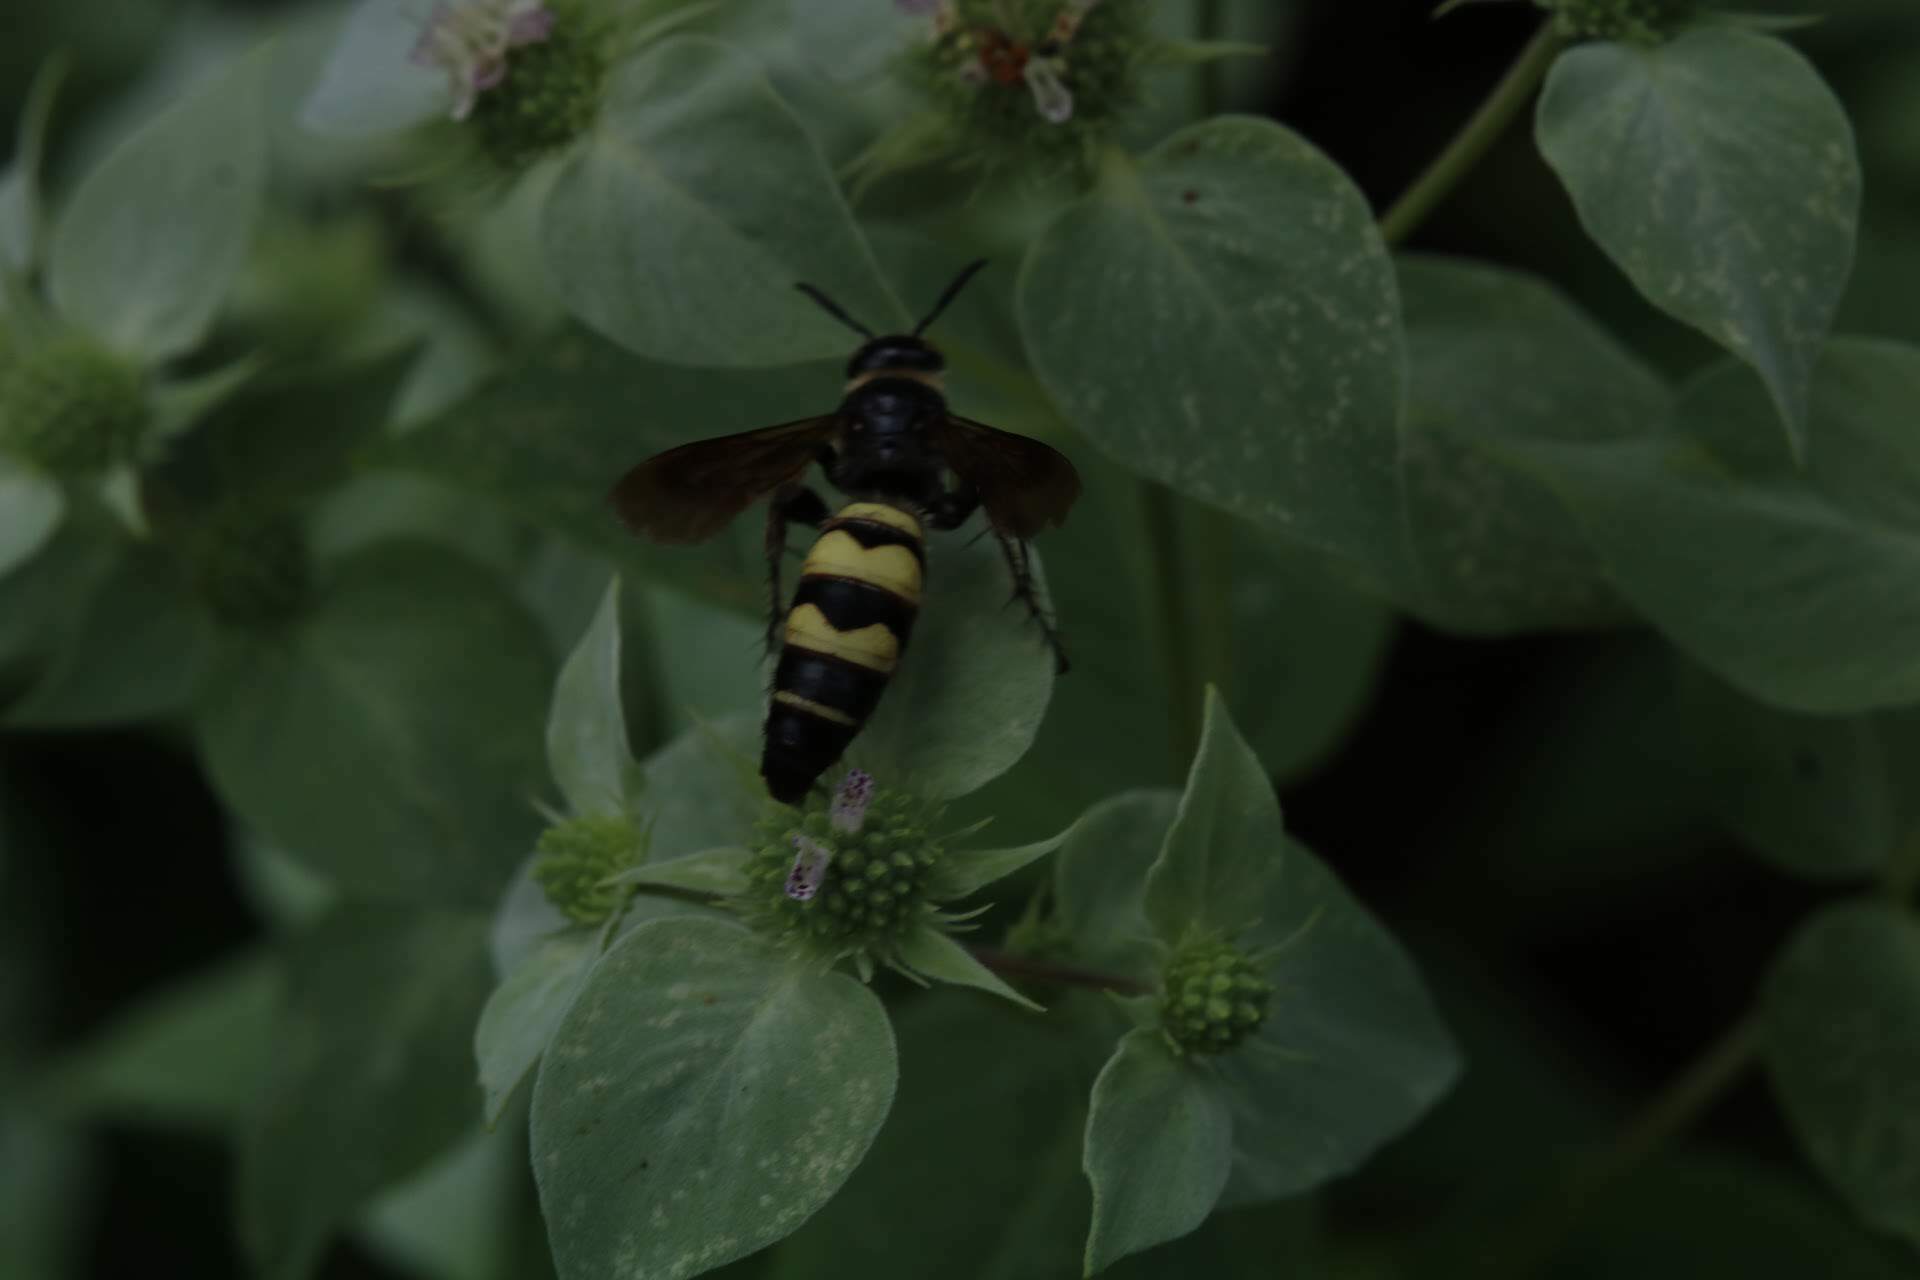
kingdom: Animalia
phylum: Arthropoda
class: Insecta
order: Hymenoptera
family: Scoliidae
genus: Dielis
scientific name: Dielis
